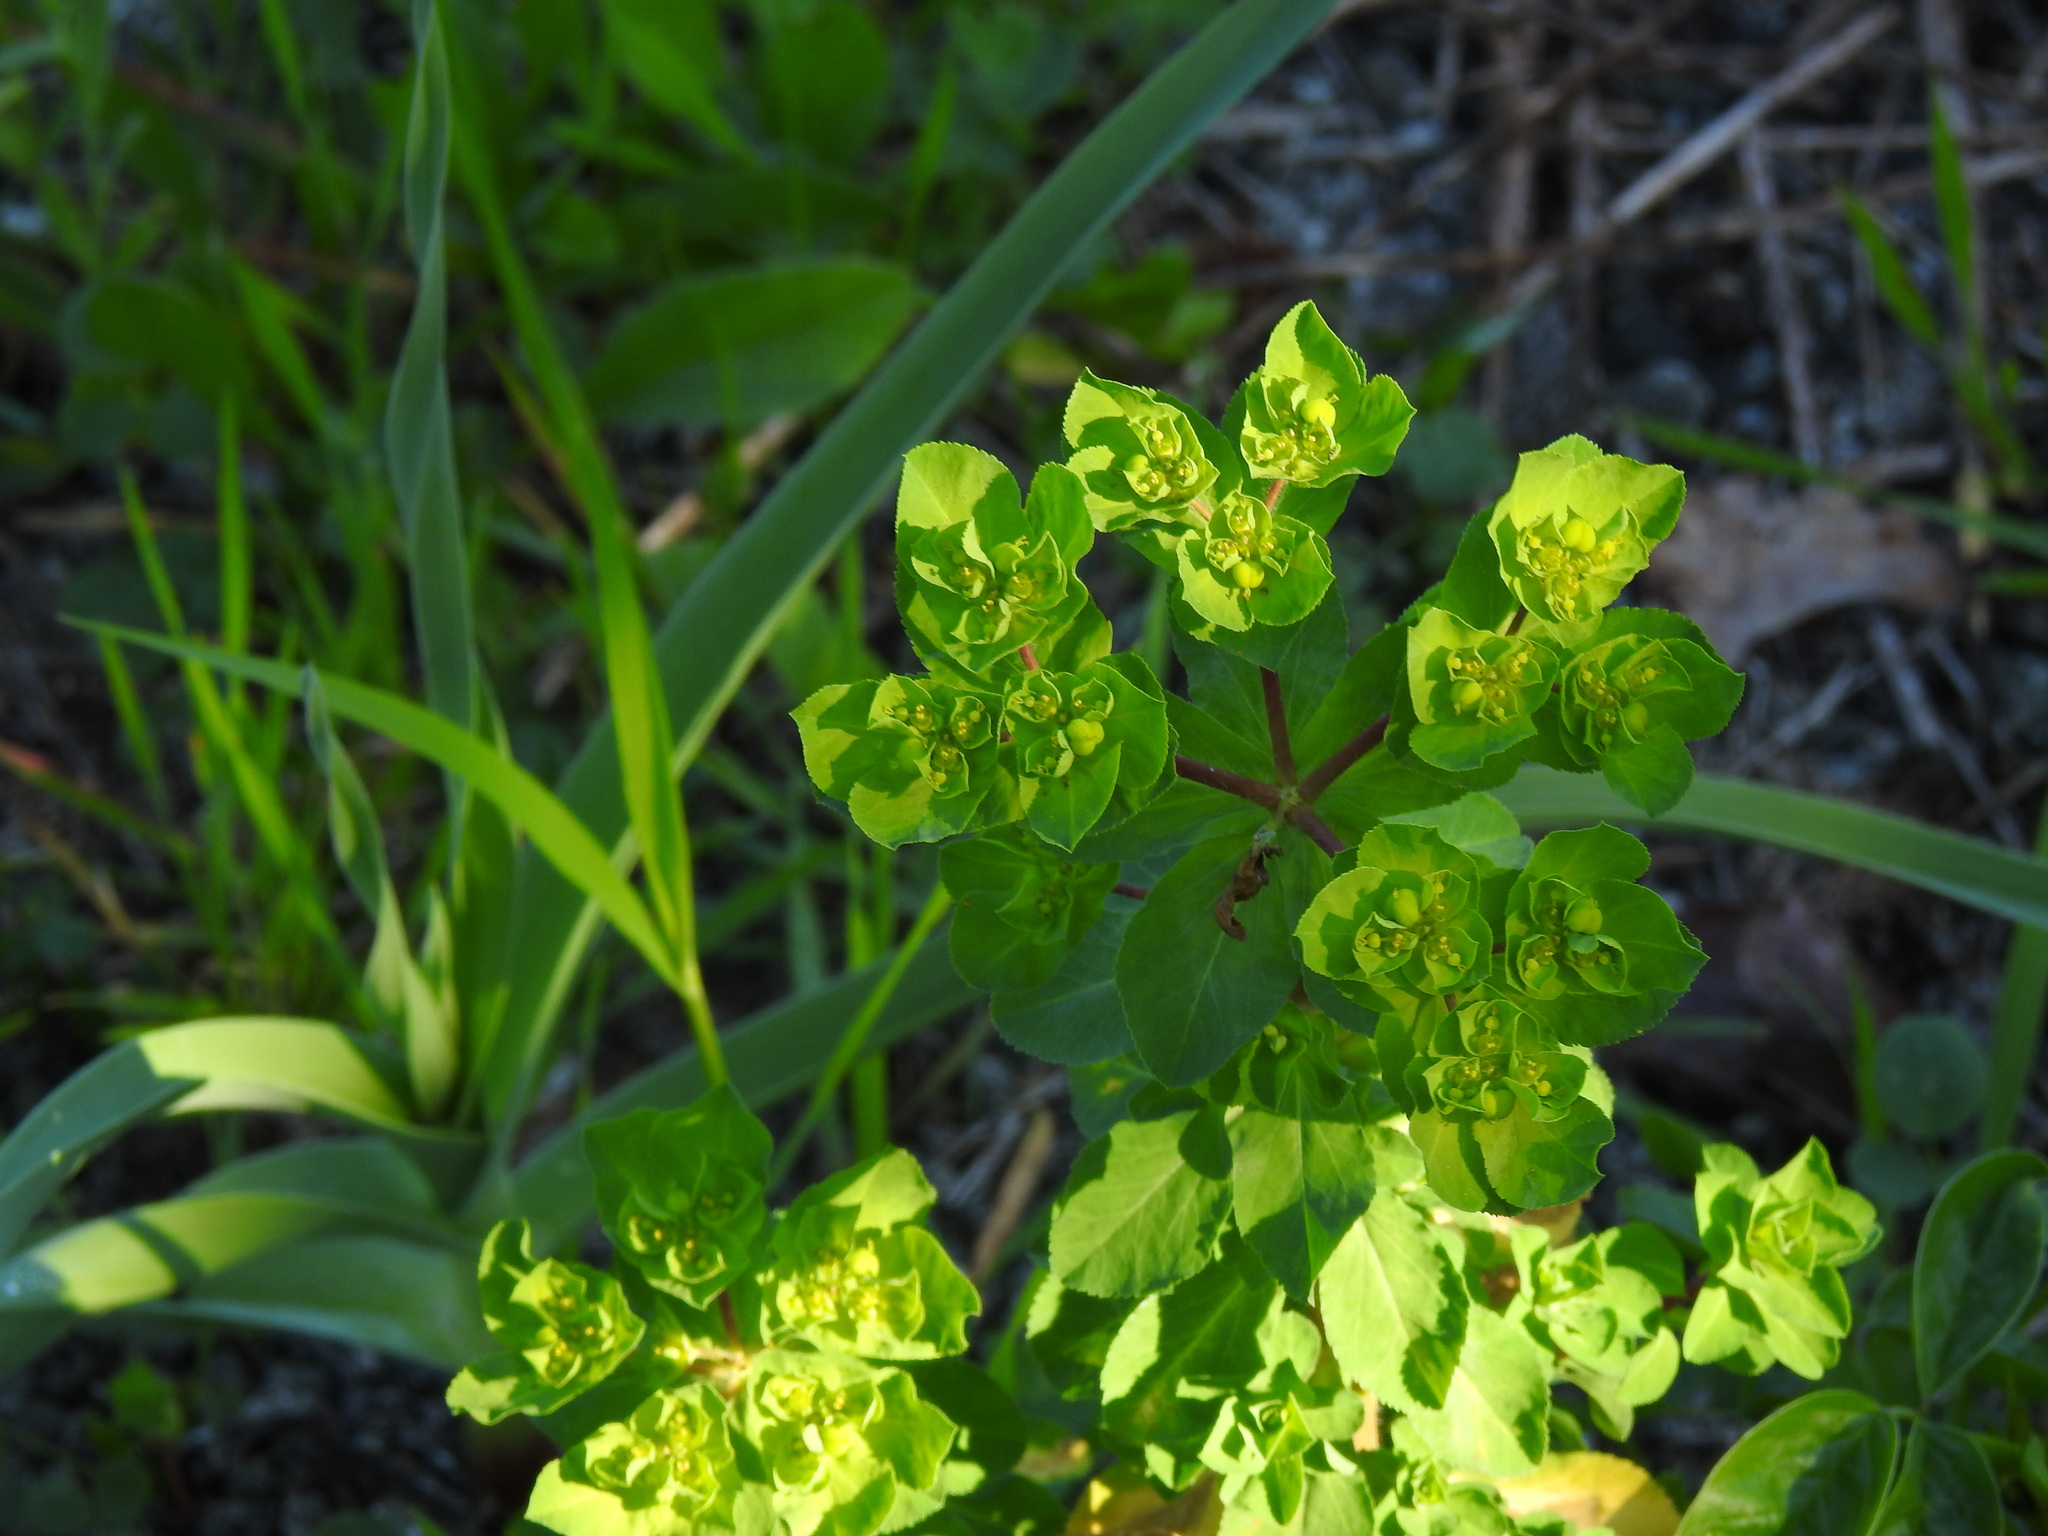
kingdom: Plantae
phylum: Tracheophyta
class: Magnoliopsida
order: Malpighiales
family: Euphorbiaceae
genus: Euphorbia
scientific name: Euphorbia helioscopia
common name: Sun spurge
